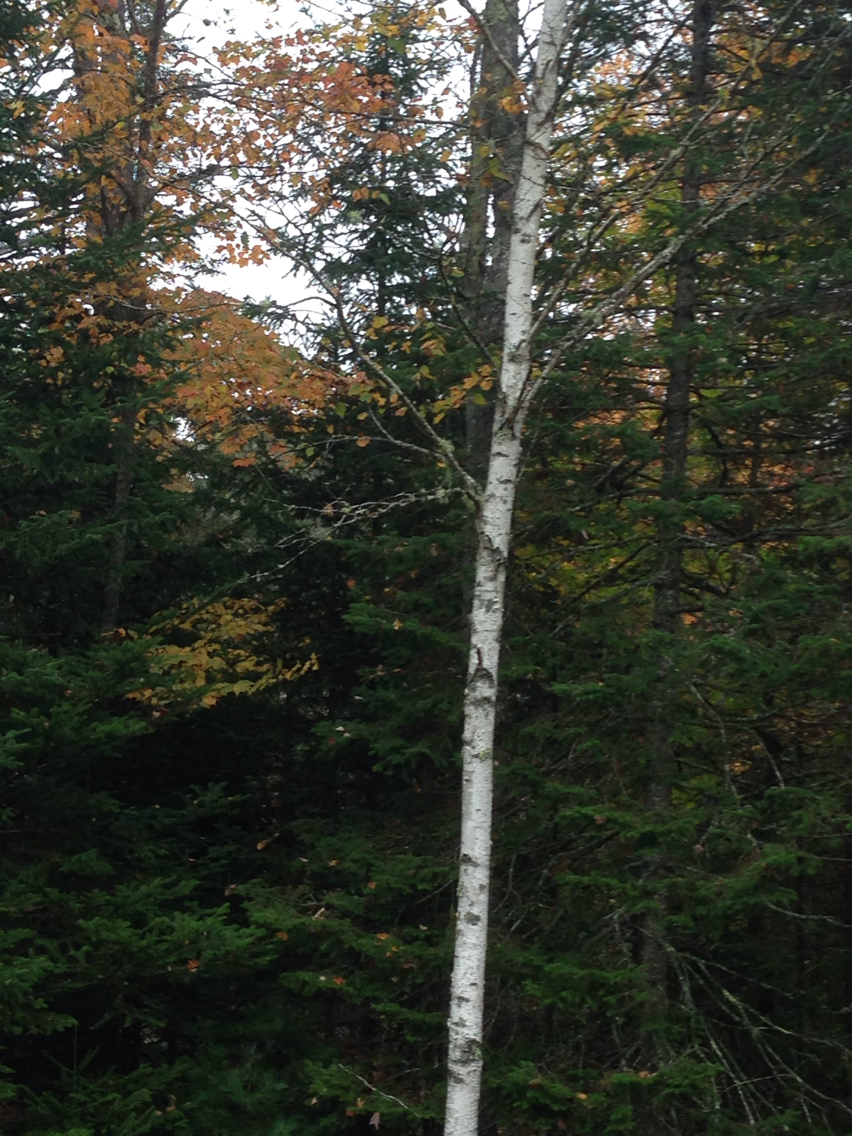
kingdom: Plantae
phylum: Tracheophyta
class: Magnoliopsida
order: Fagales
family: Betulaceae
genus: Betula
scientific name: Betula populifolia
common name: Fire birch
